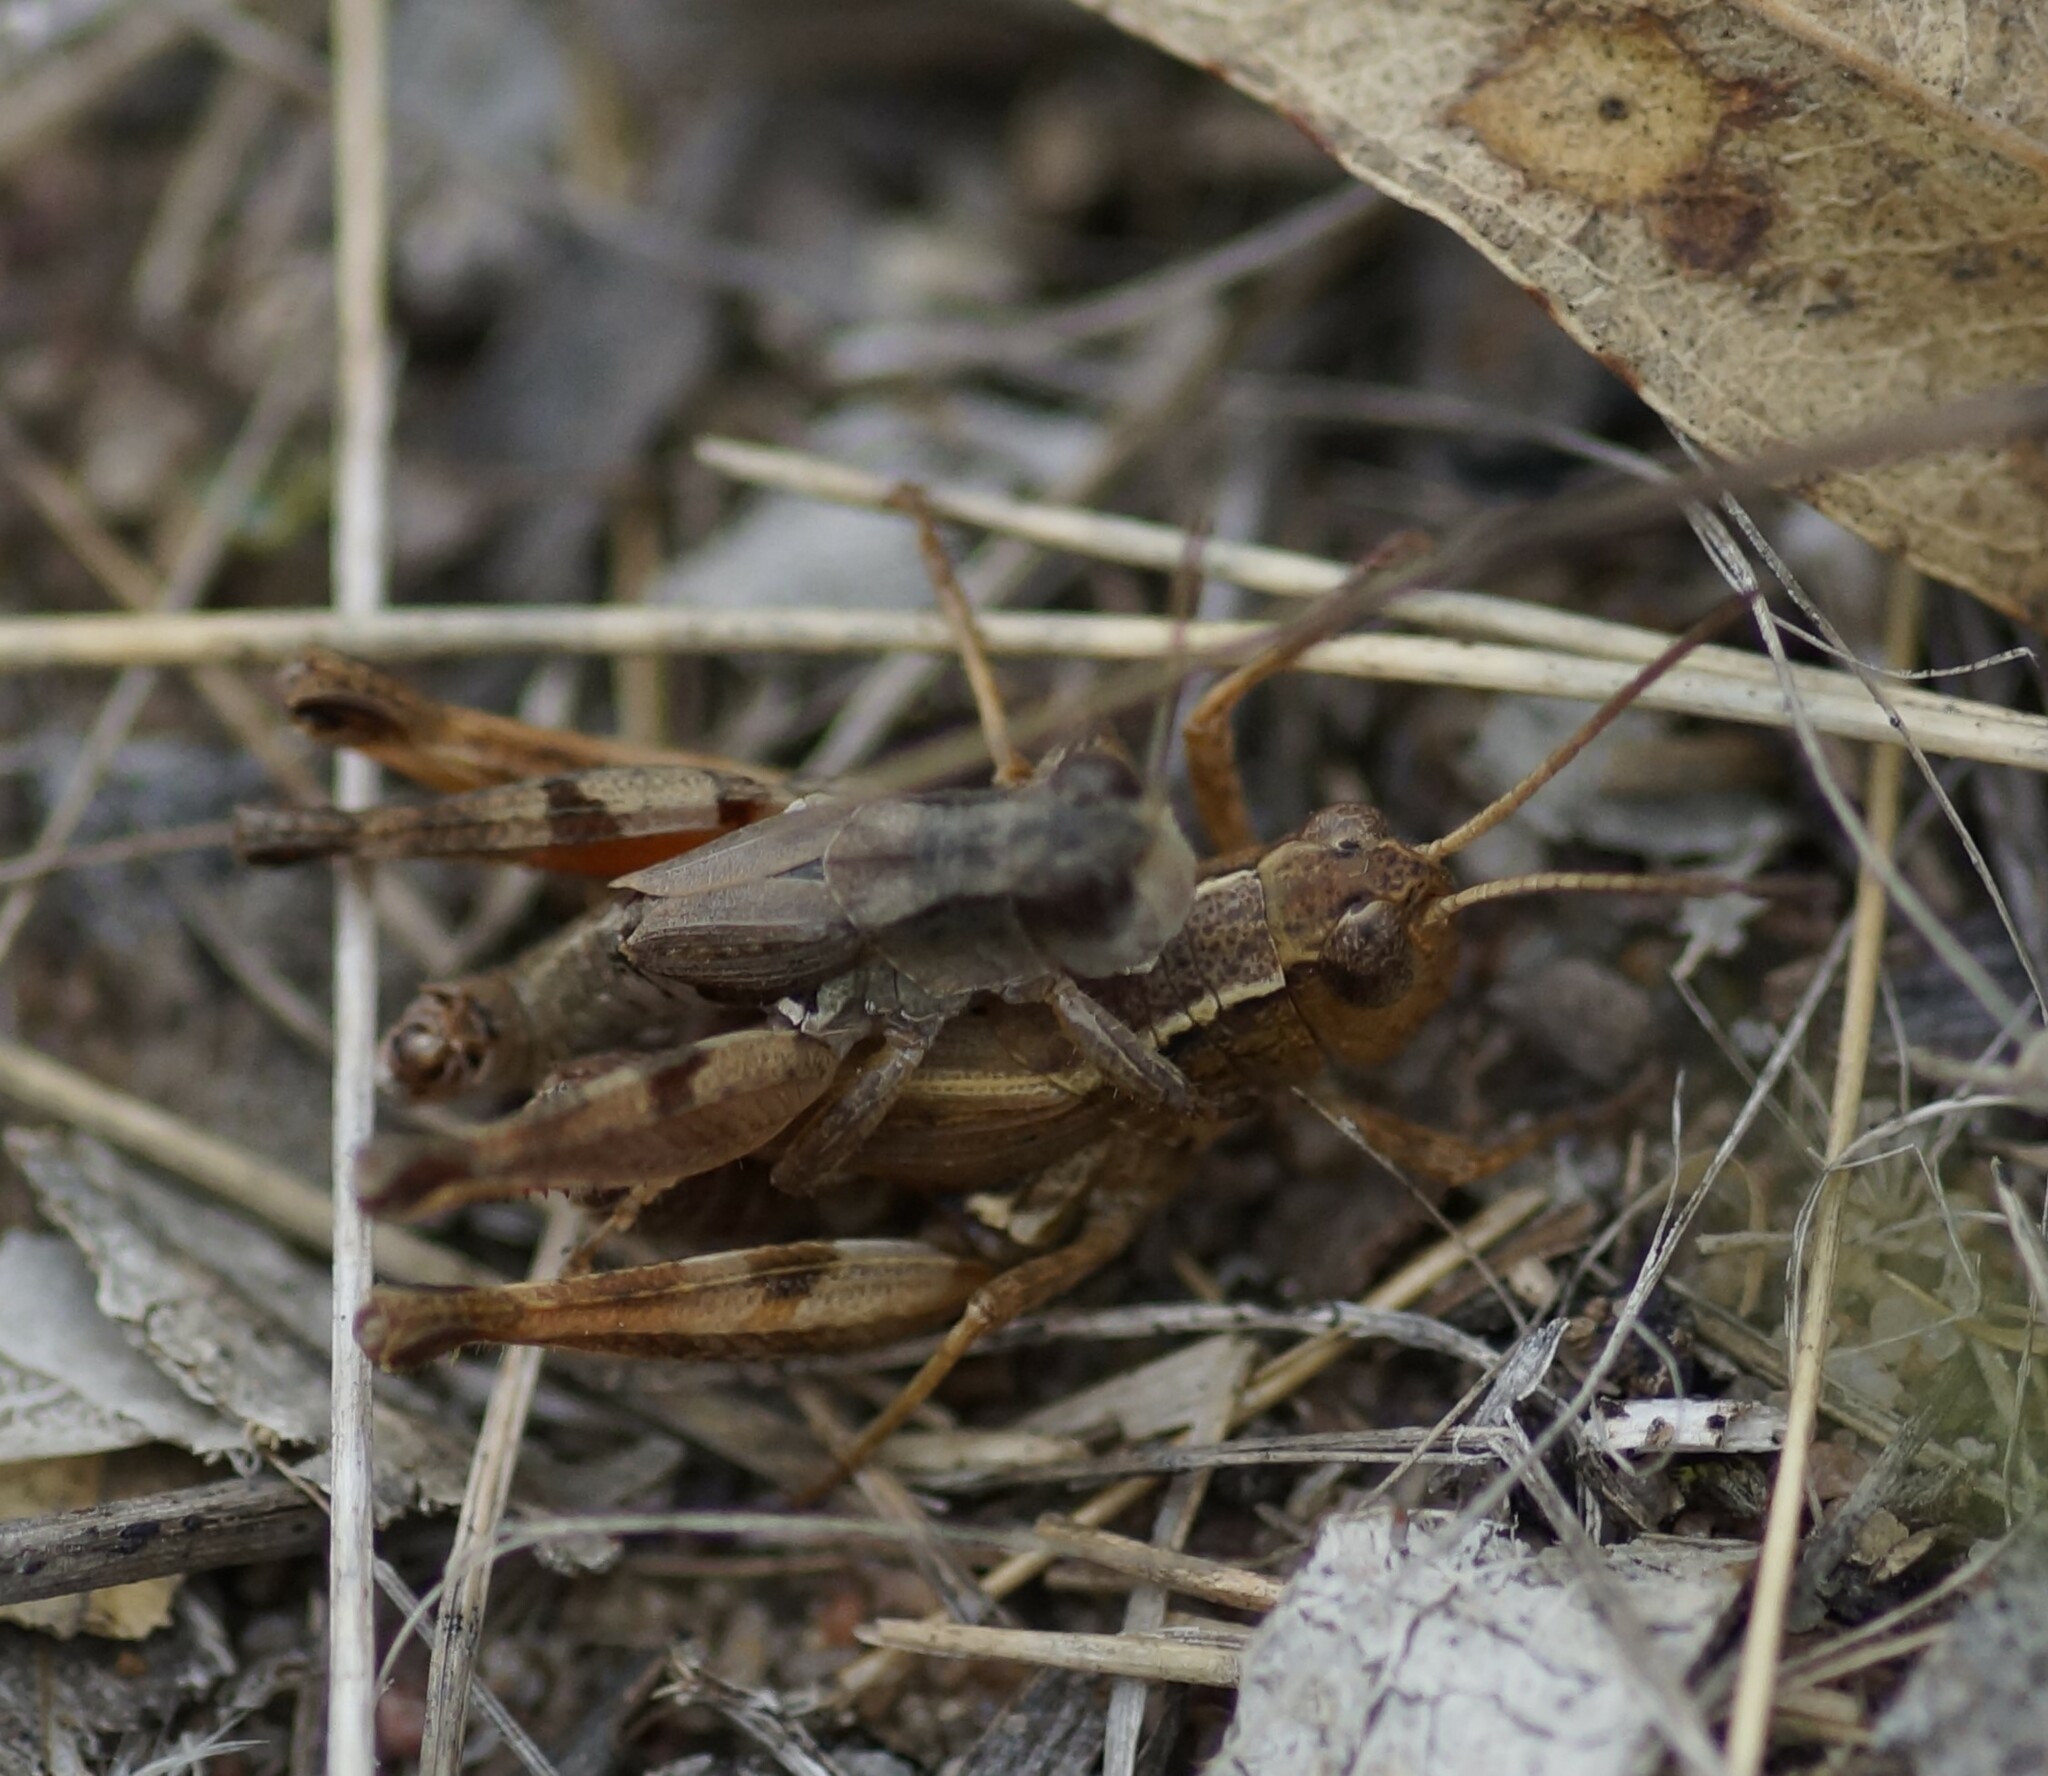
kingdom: Animalia
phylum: Arthropoda
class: Insecta
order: Orthoptera
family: Acrididae
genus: Phaulacridium
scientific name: Phaulacridium vittatum
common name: Wingless grasshopper
